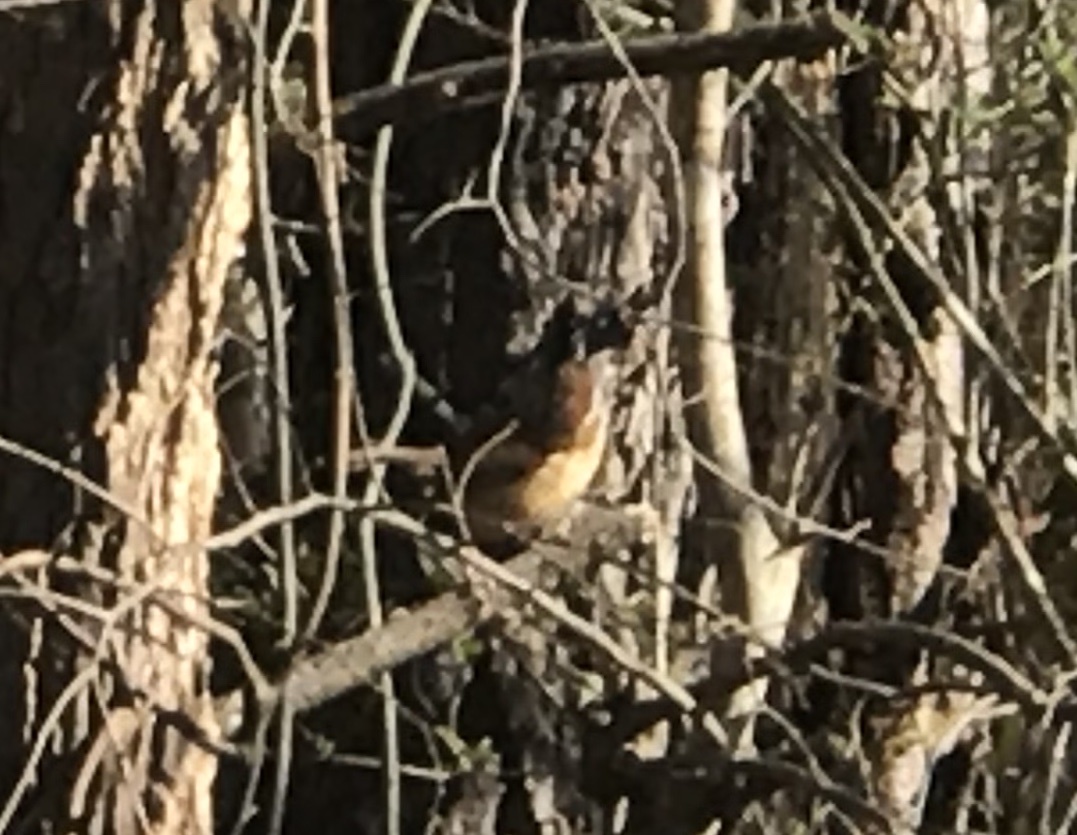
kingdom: Animalia
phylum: Chordata
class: Aves
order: Passeriformes
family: Troglodytidae
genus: Thryothorus
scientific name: Thryothorus ludovicianus
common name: Carolina wren
